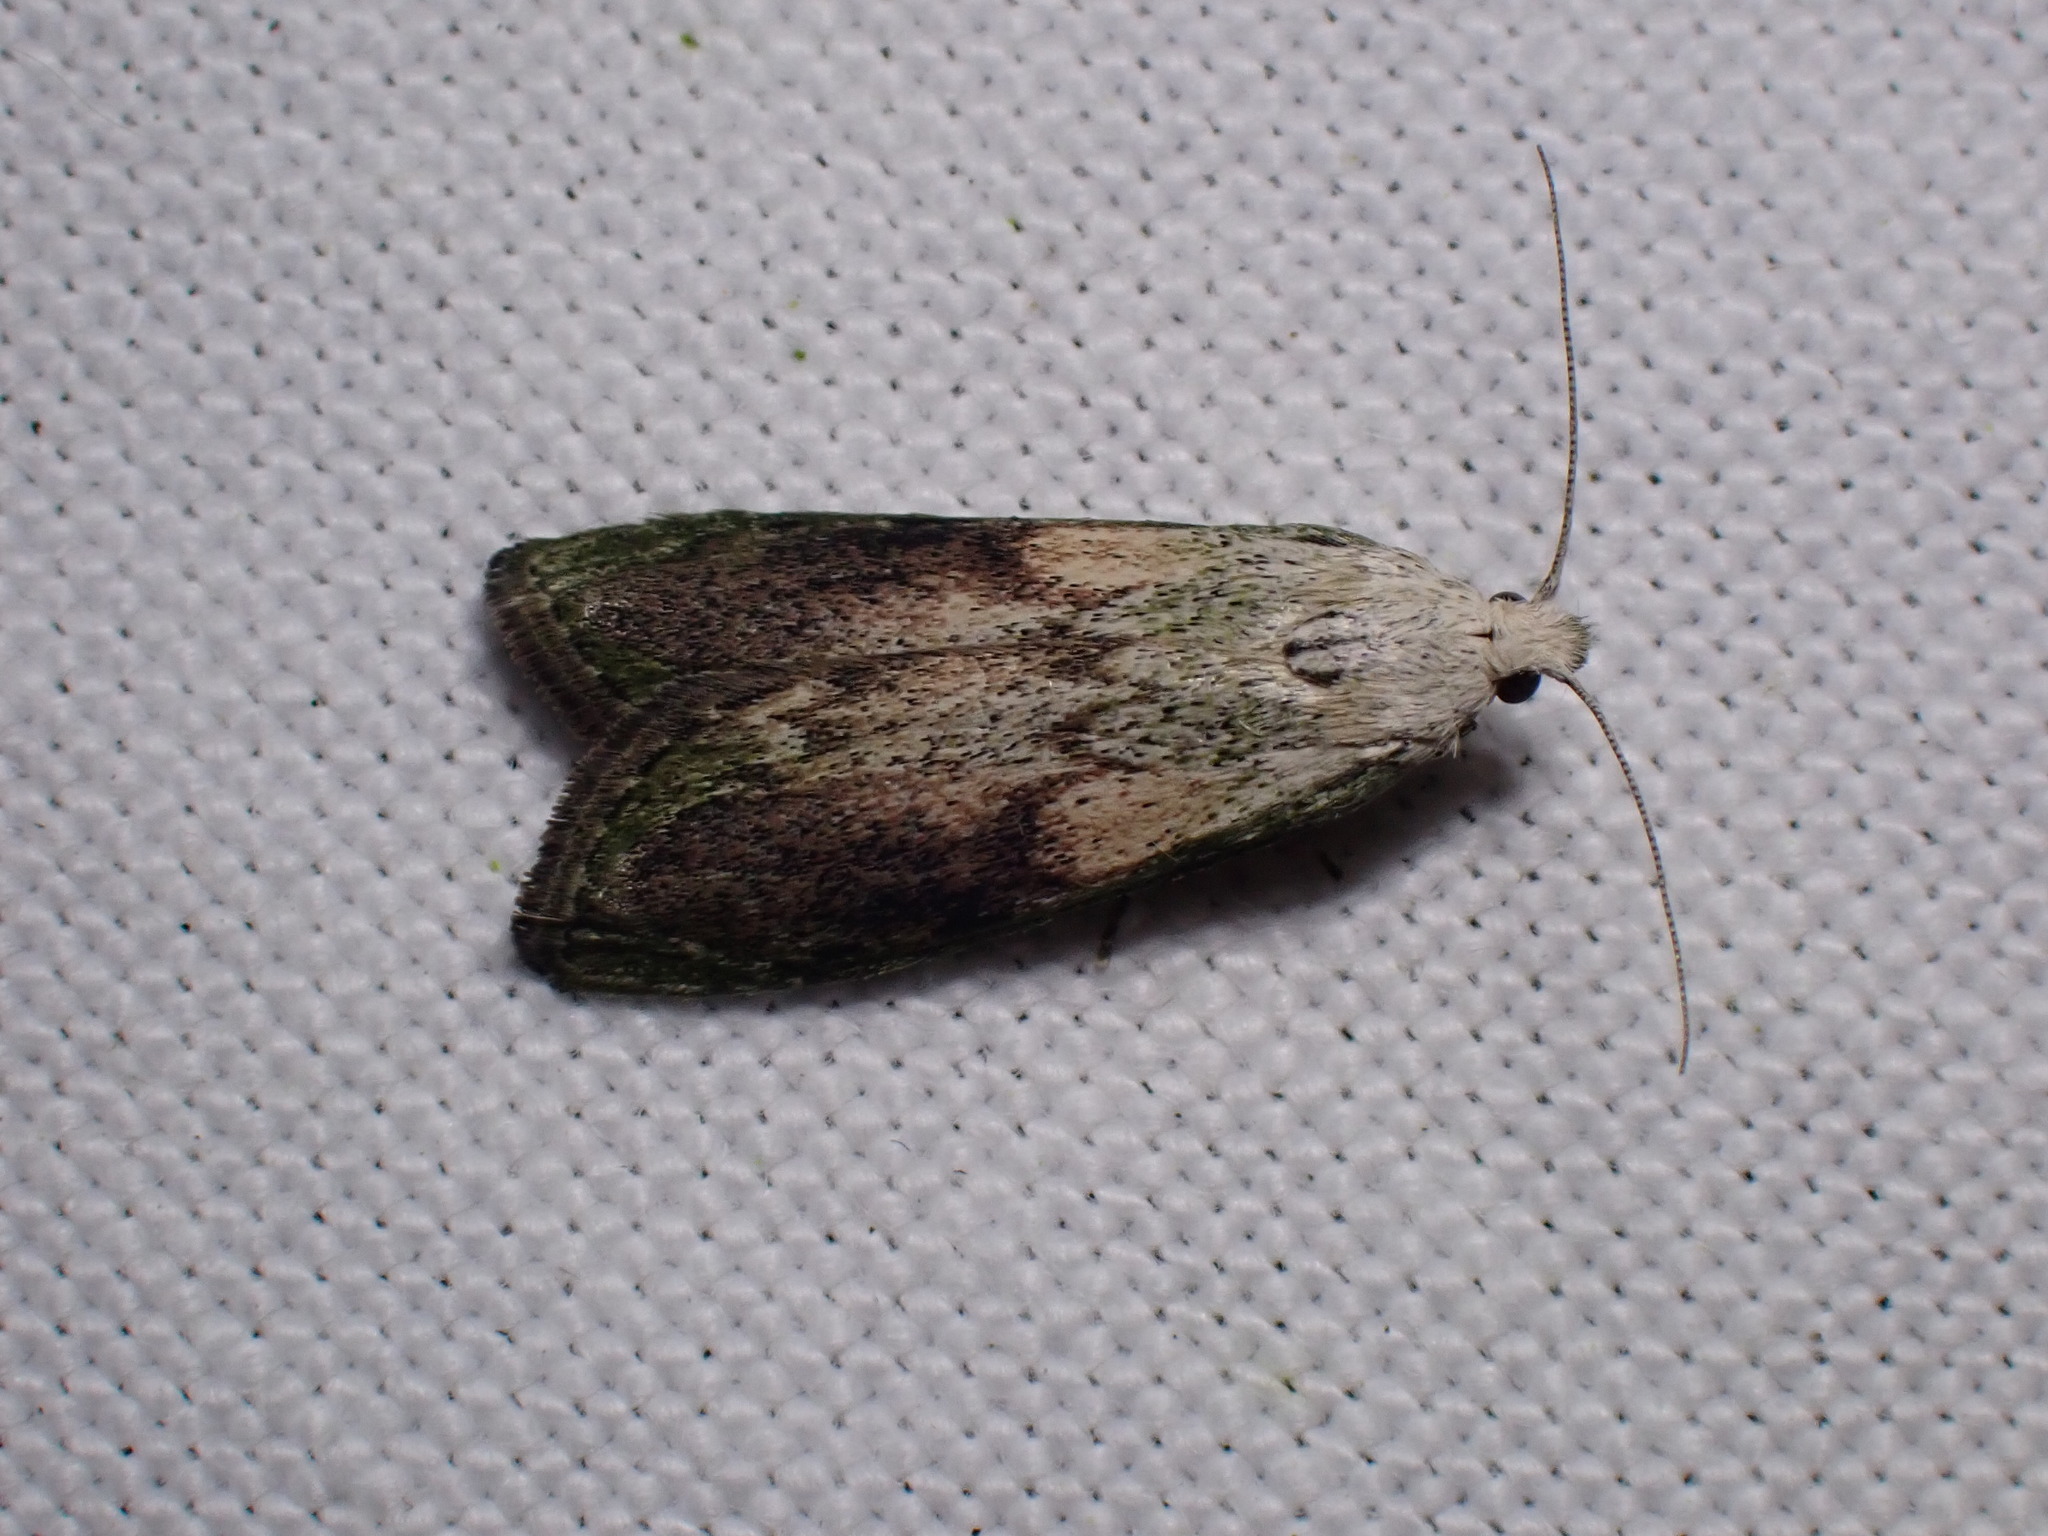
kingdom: Animalia
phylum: Arthropoda
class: Insecta
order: Lepidoptera
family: Pyralidae
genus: Aphomia
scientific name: Aphomia sociella
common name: Bee moth
